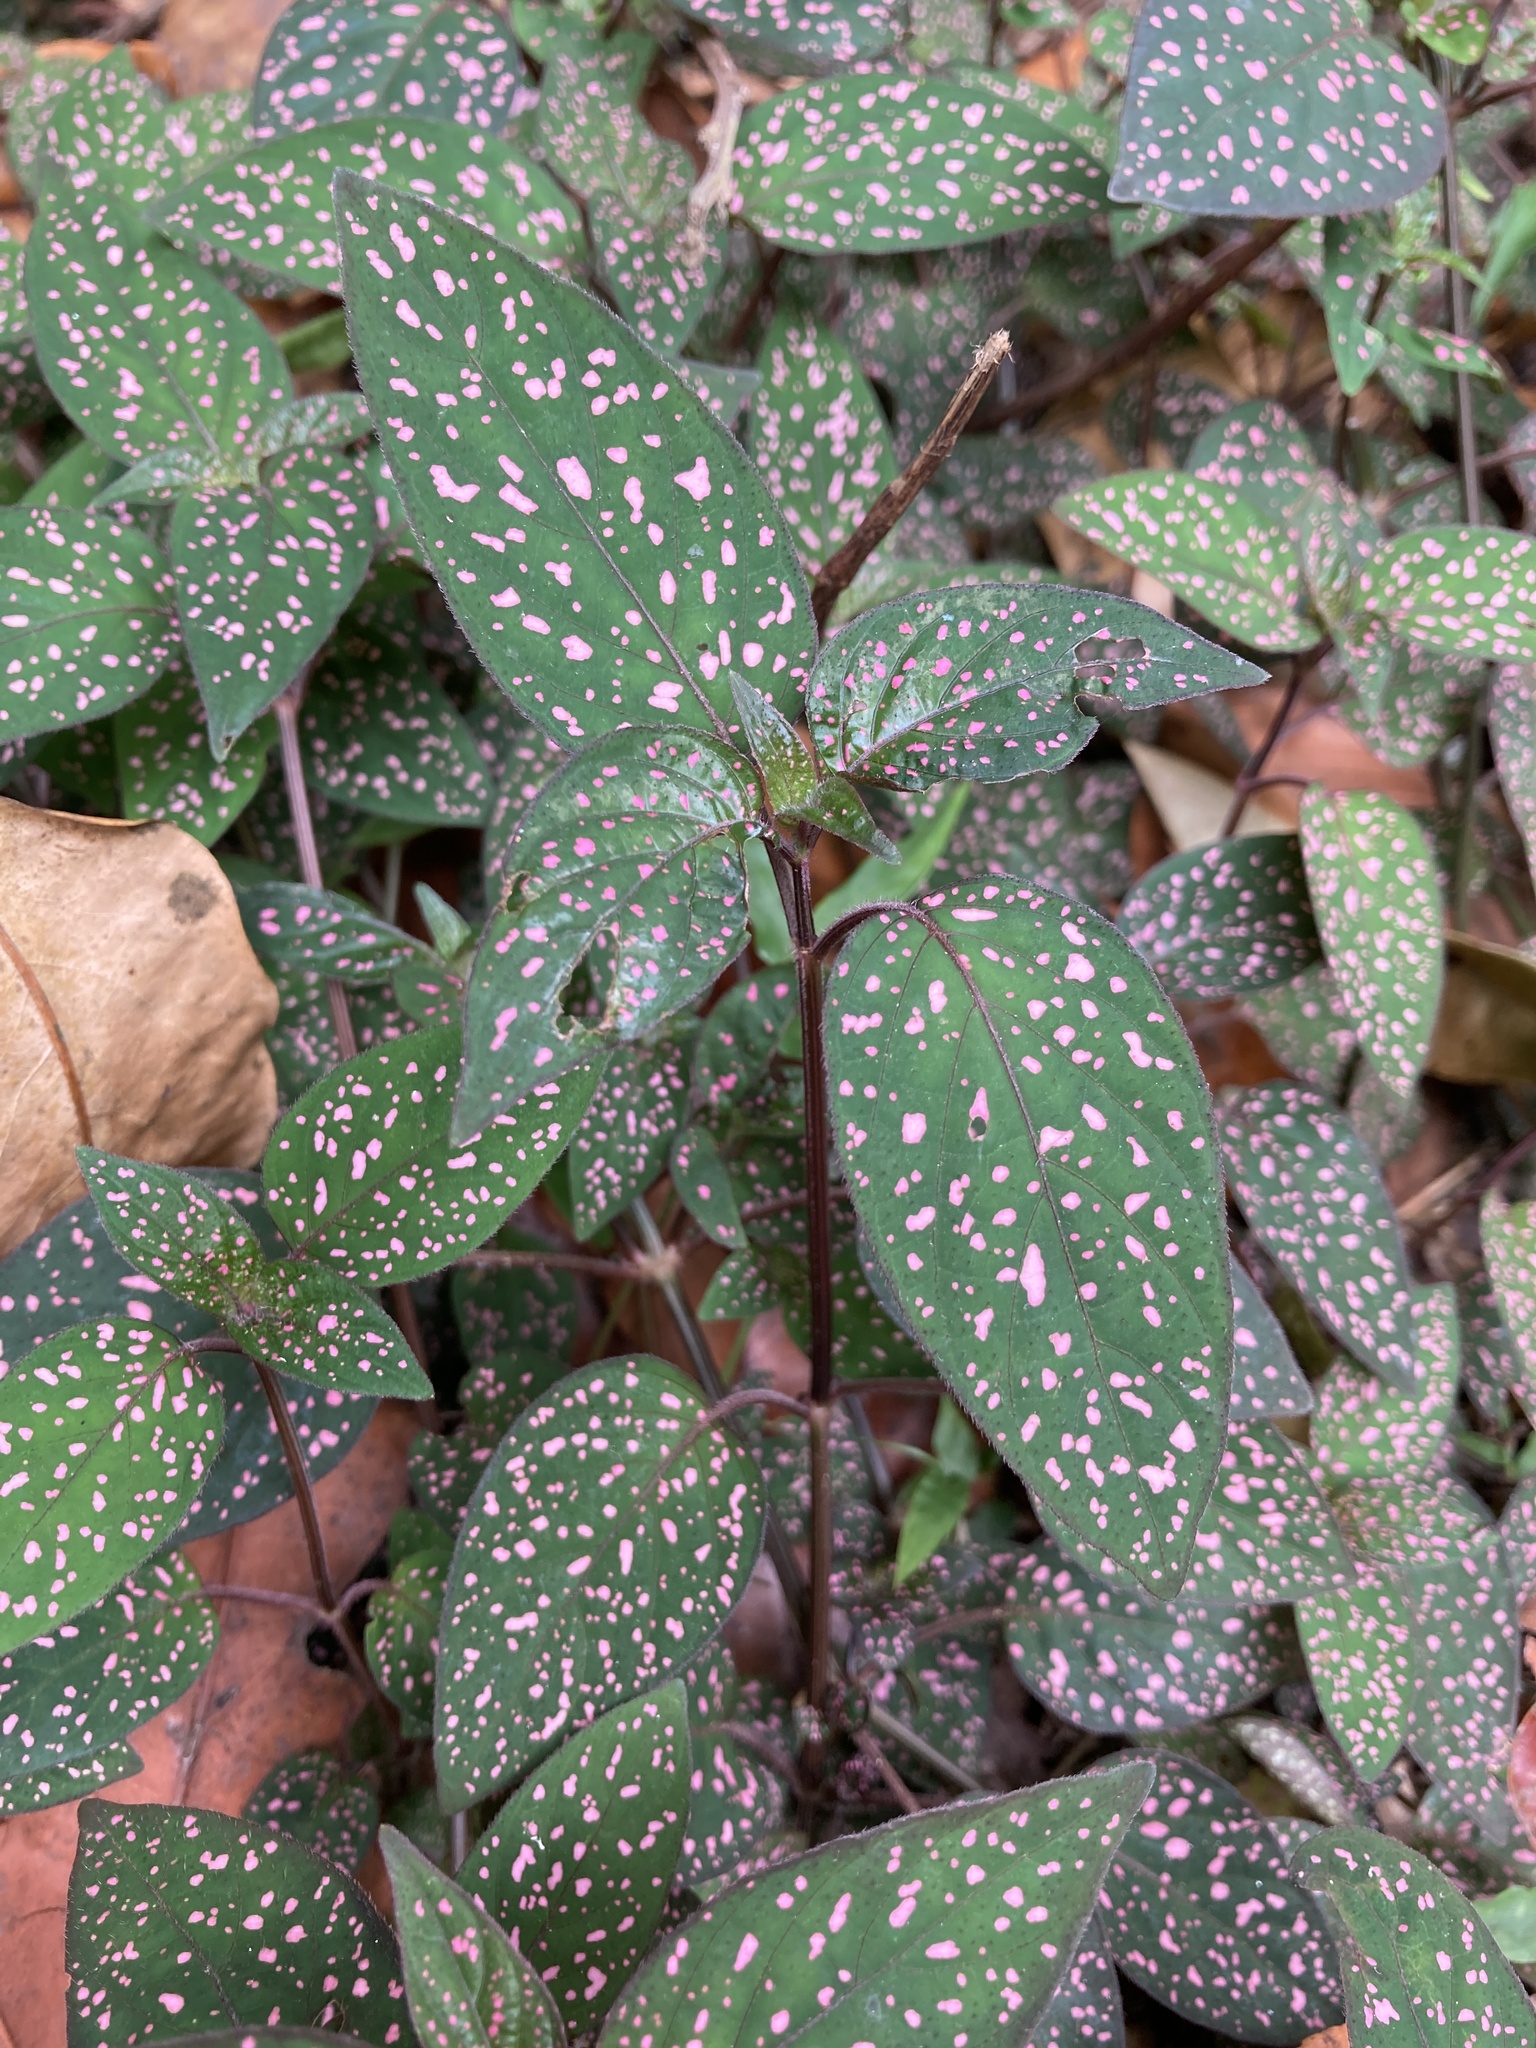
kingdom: Plantae
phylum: Tracheophyta
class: Magnoliopsida
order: Lamiales
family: Acanthaceae
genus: Hypoestes
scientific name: Hypoestes phyllostachya
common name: Polkadot-plant
